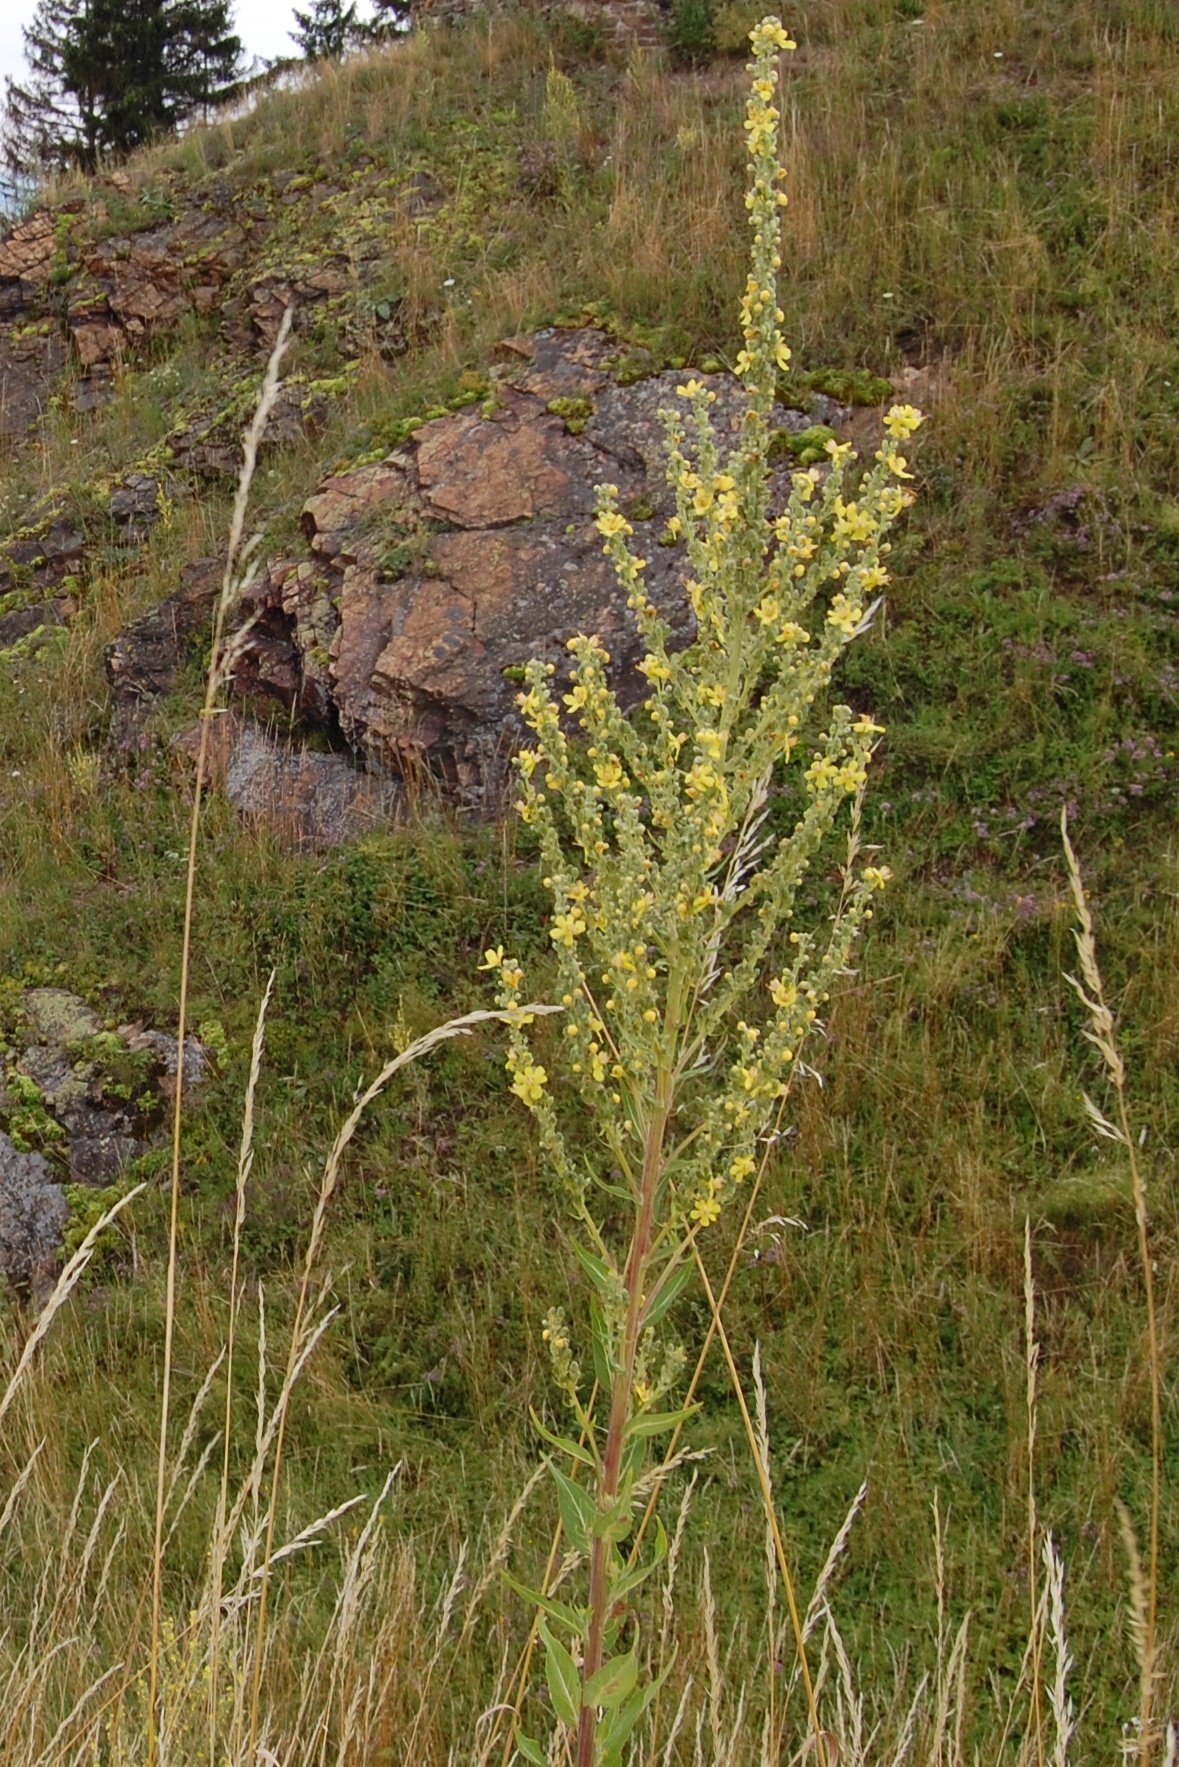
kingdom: Plantae
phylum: Tracheophyta
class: Magnoliopsida
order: Lamiales
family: Scrophulariaceae
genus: Verbascum
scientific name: Verbascum lychnitis
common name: White mullein
